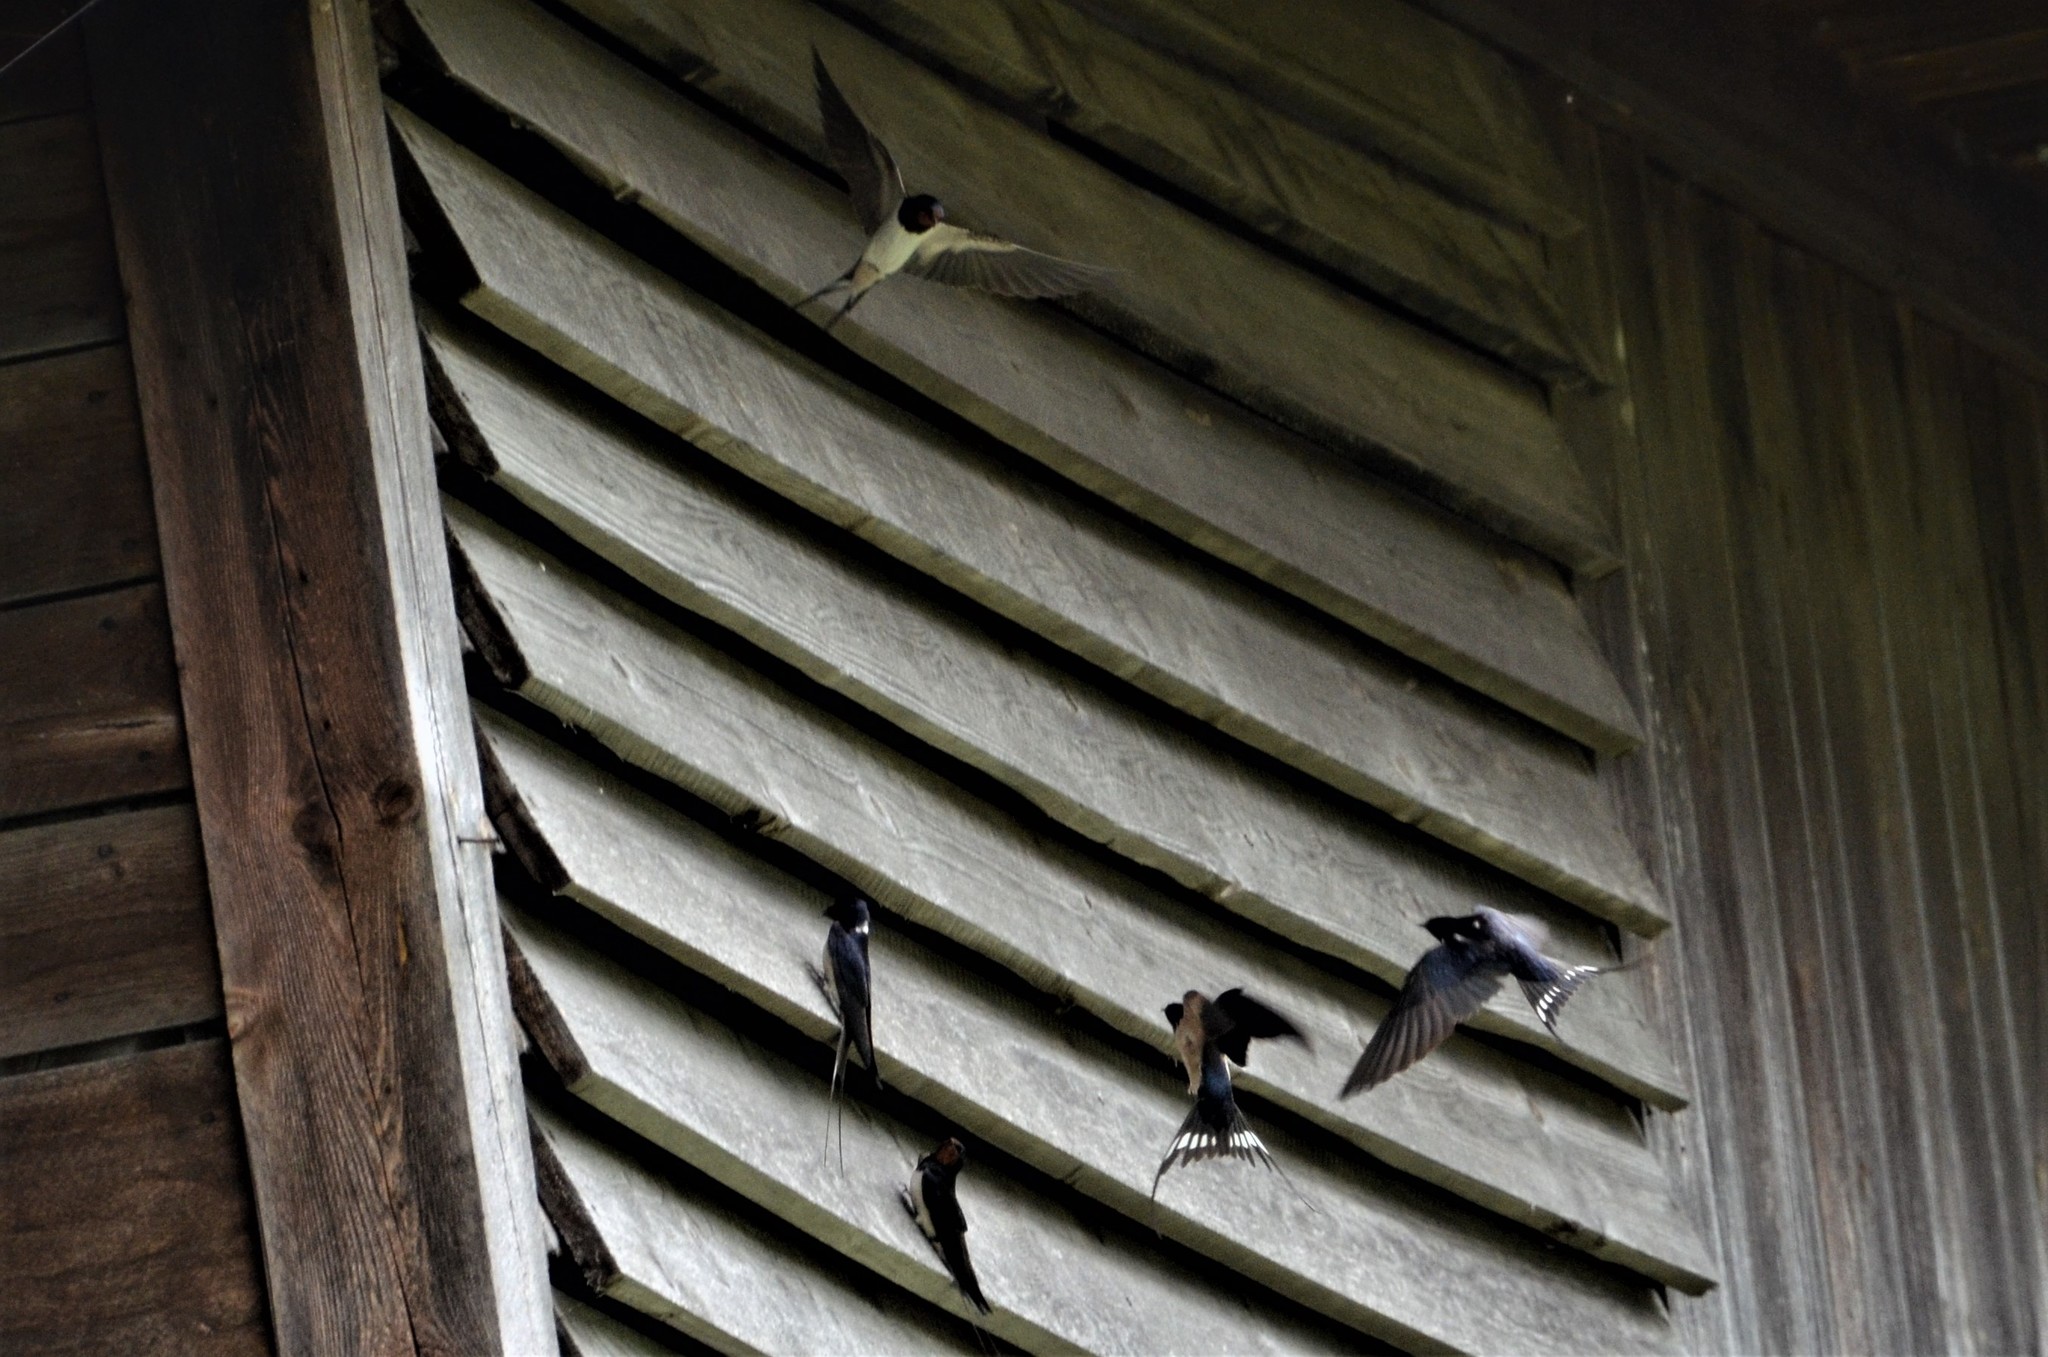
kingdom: Animalia
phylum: Chordata
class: Aves
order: Passeriformes
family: Hirundinidae
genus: Hirundo
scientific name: Hirundo rustica
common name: Barn swallow
